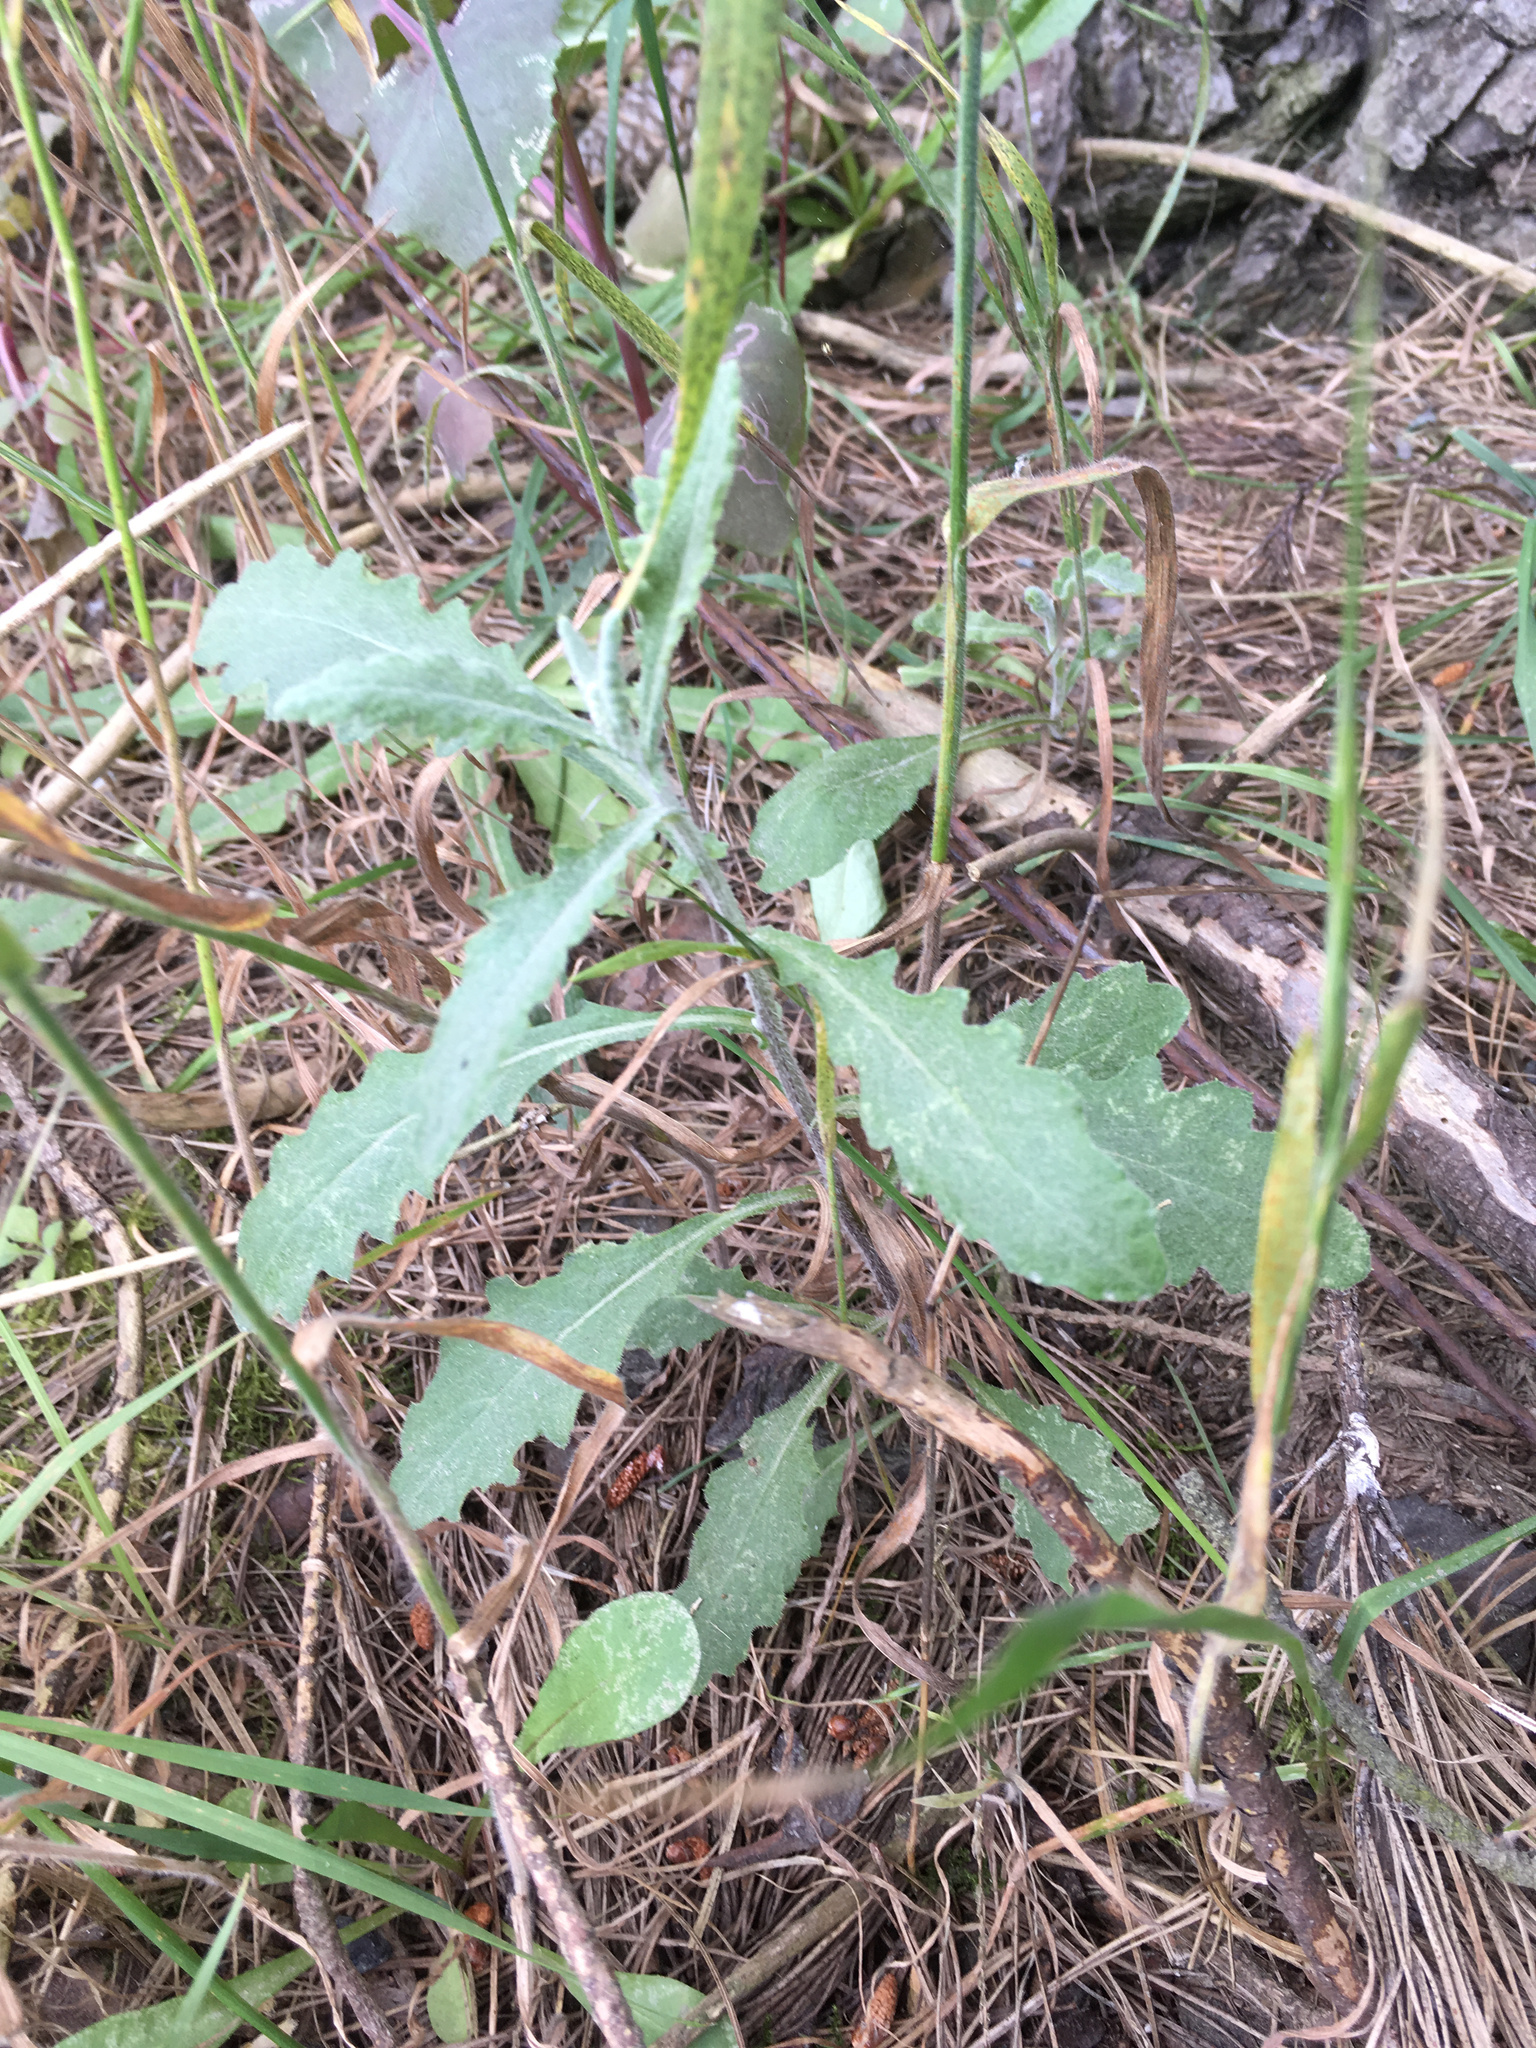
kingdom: Plantae
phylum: Tracheophyta
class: Magnoliopsida
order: Asterales
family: Asteraceae
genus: Senecio
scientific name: Senecio glomeratus
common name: Cutleaf burnweed
